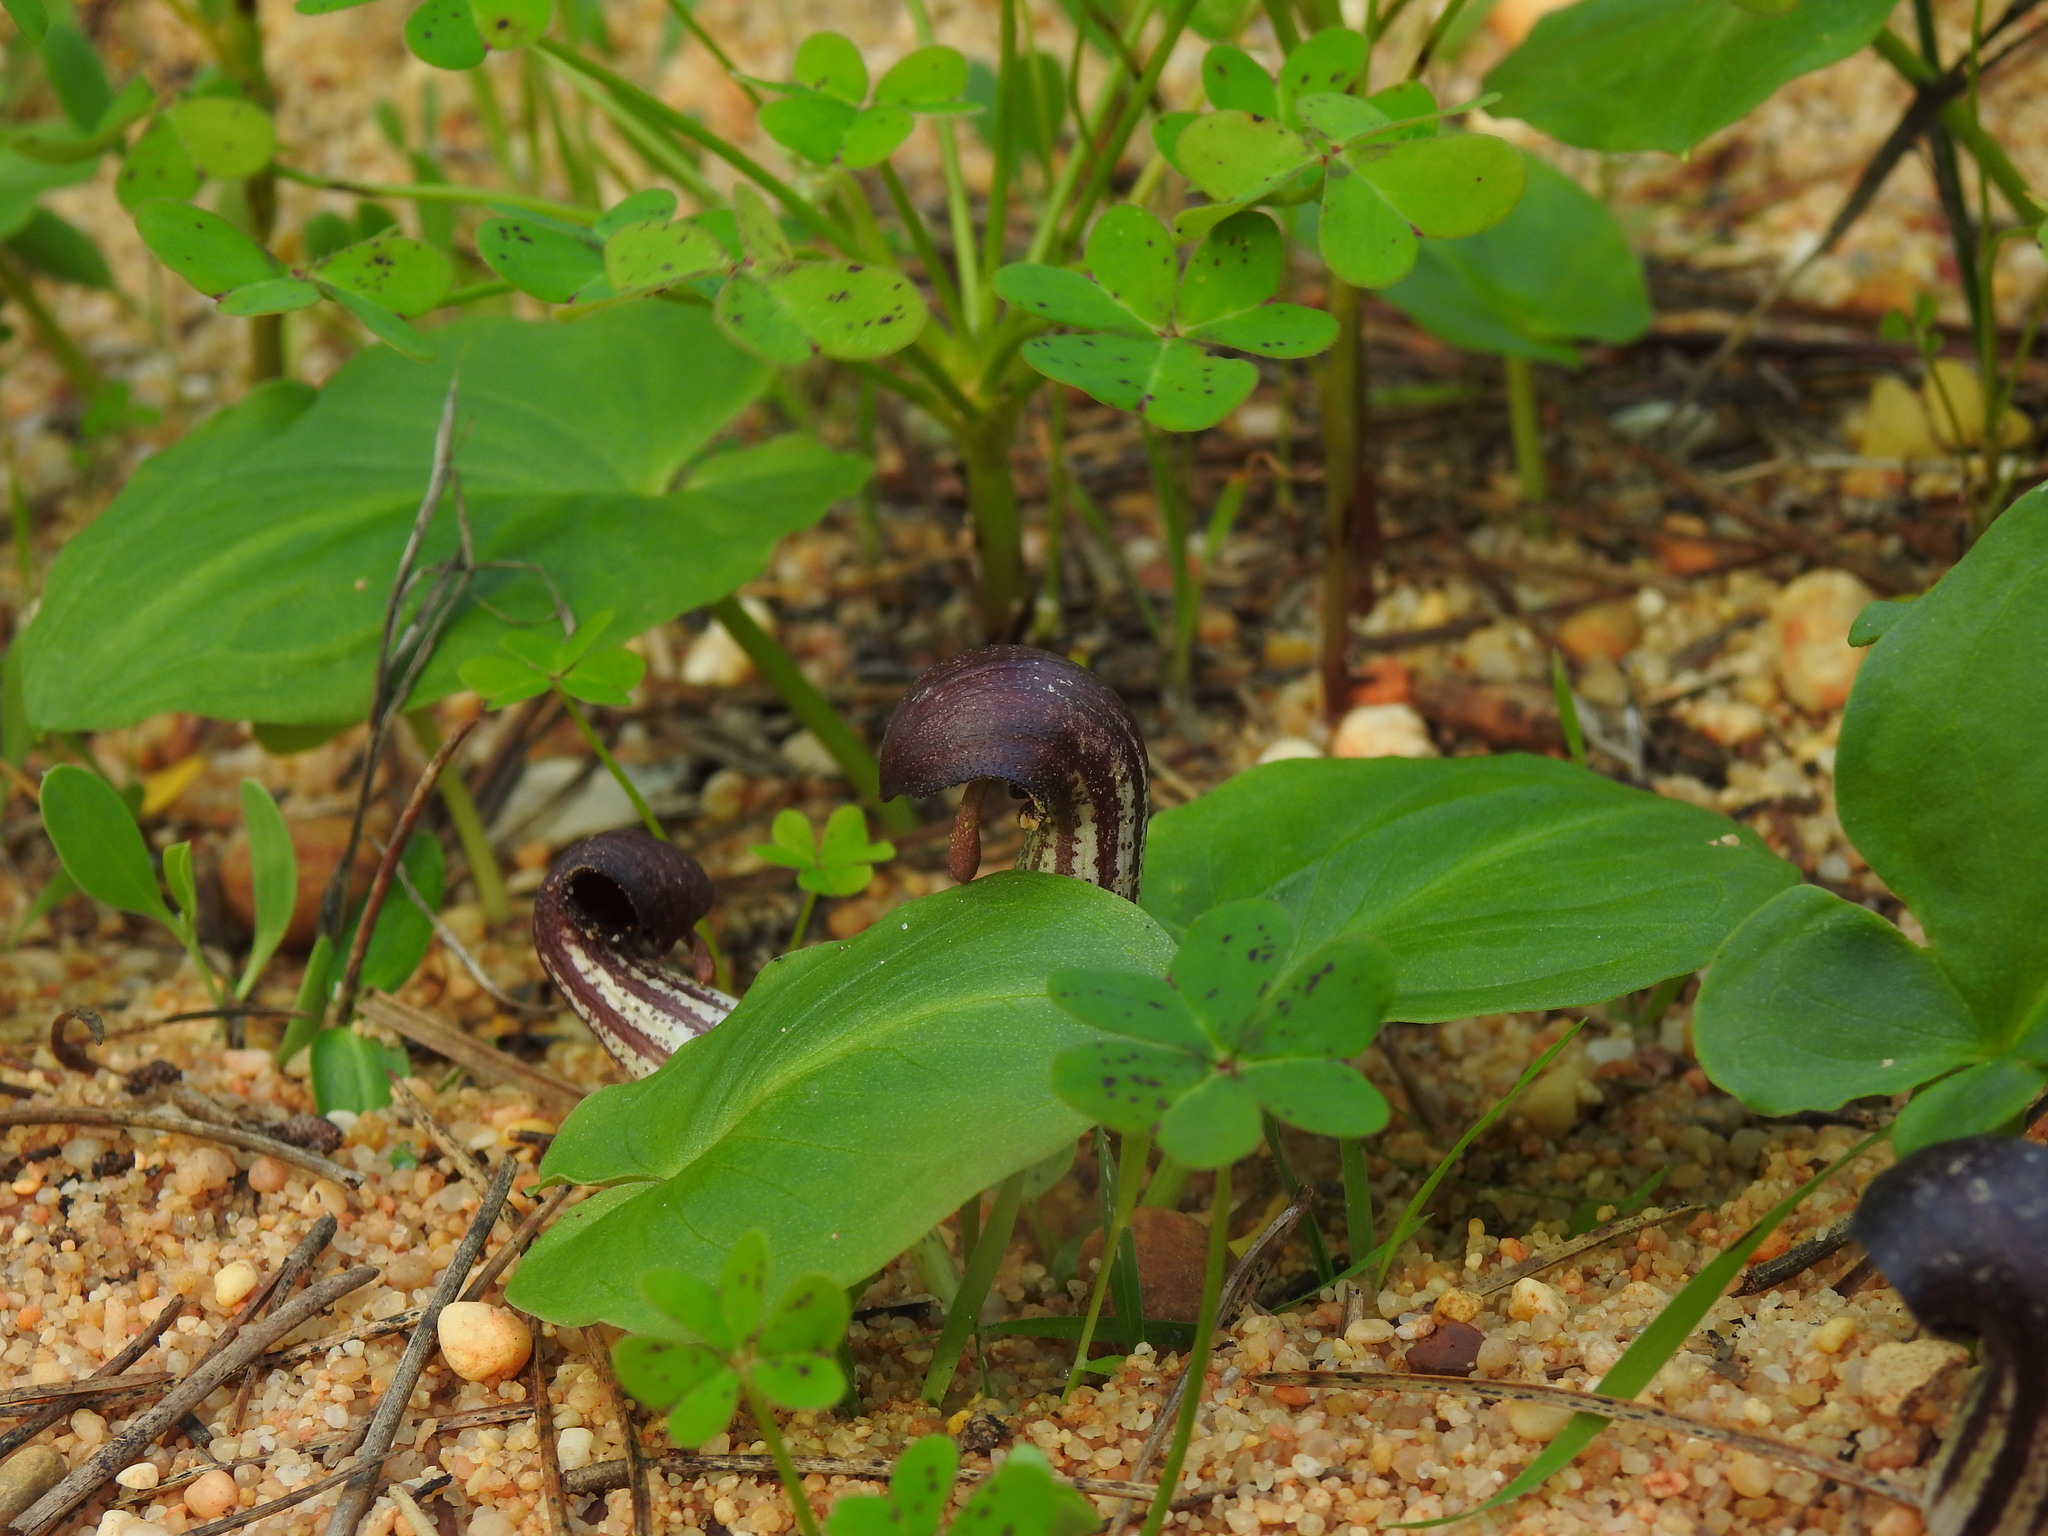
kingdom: Plantae
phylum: Tracheophyta
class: Liliopsida
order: Alismatales
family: Araceae
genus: Arisarum
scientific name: Arisarum simorrhinum
